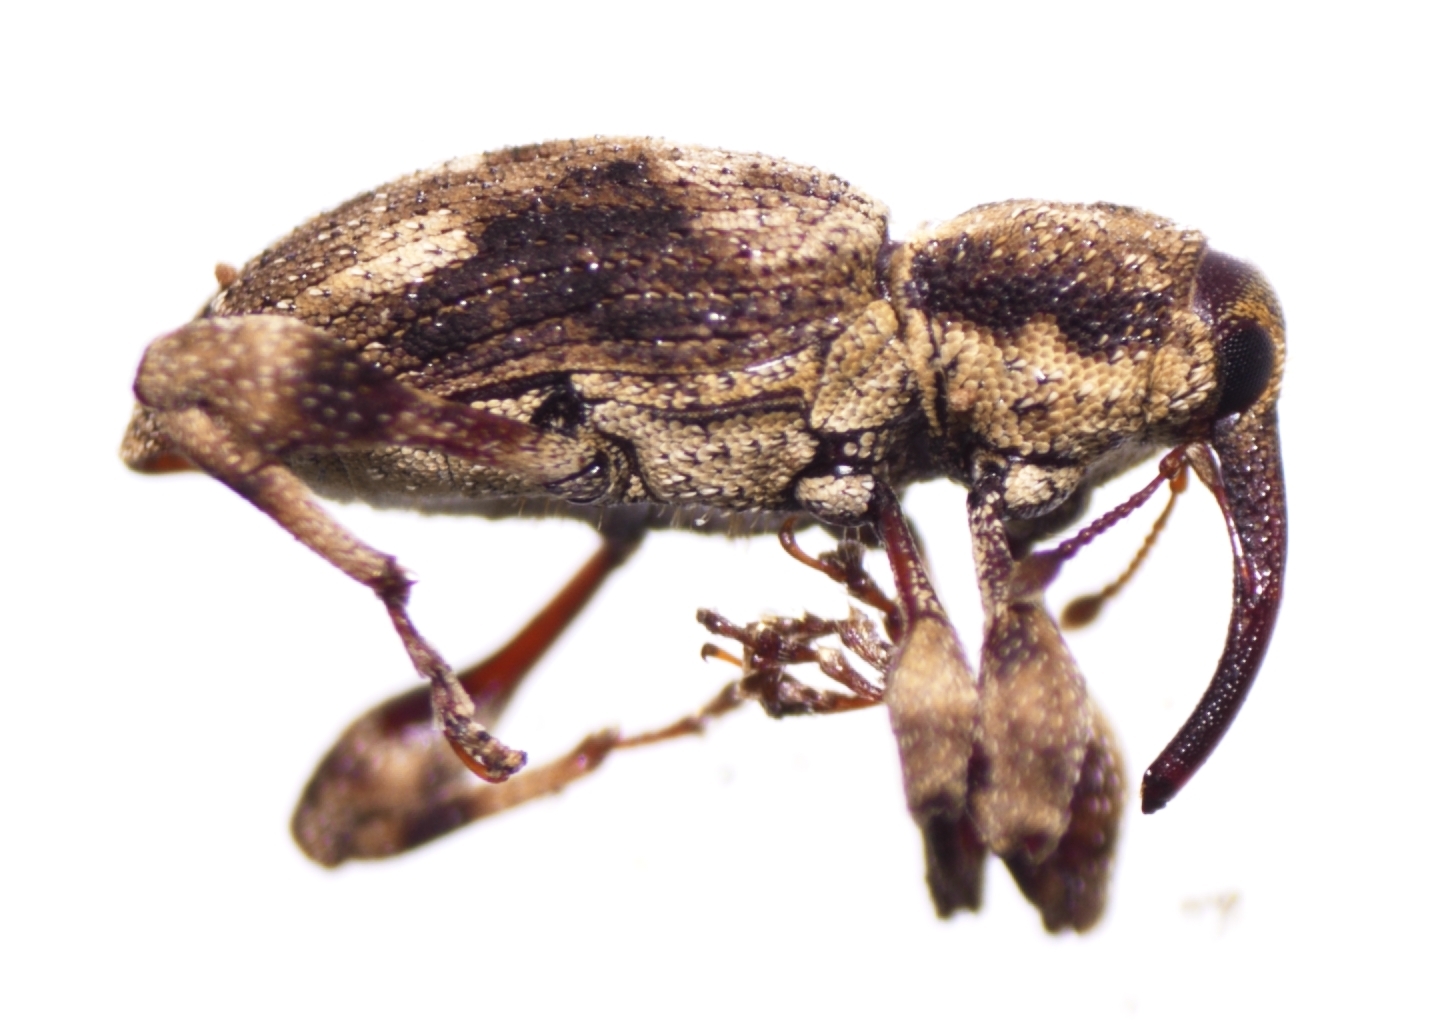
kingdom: Animalia
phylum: Arthropoda
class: Insecta
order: Coleoptera
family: Curculionidae
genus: Acicnemis
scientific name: Acicnemis variegata
